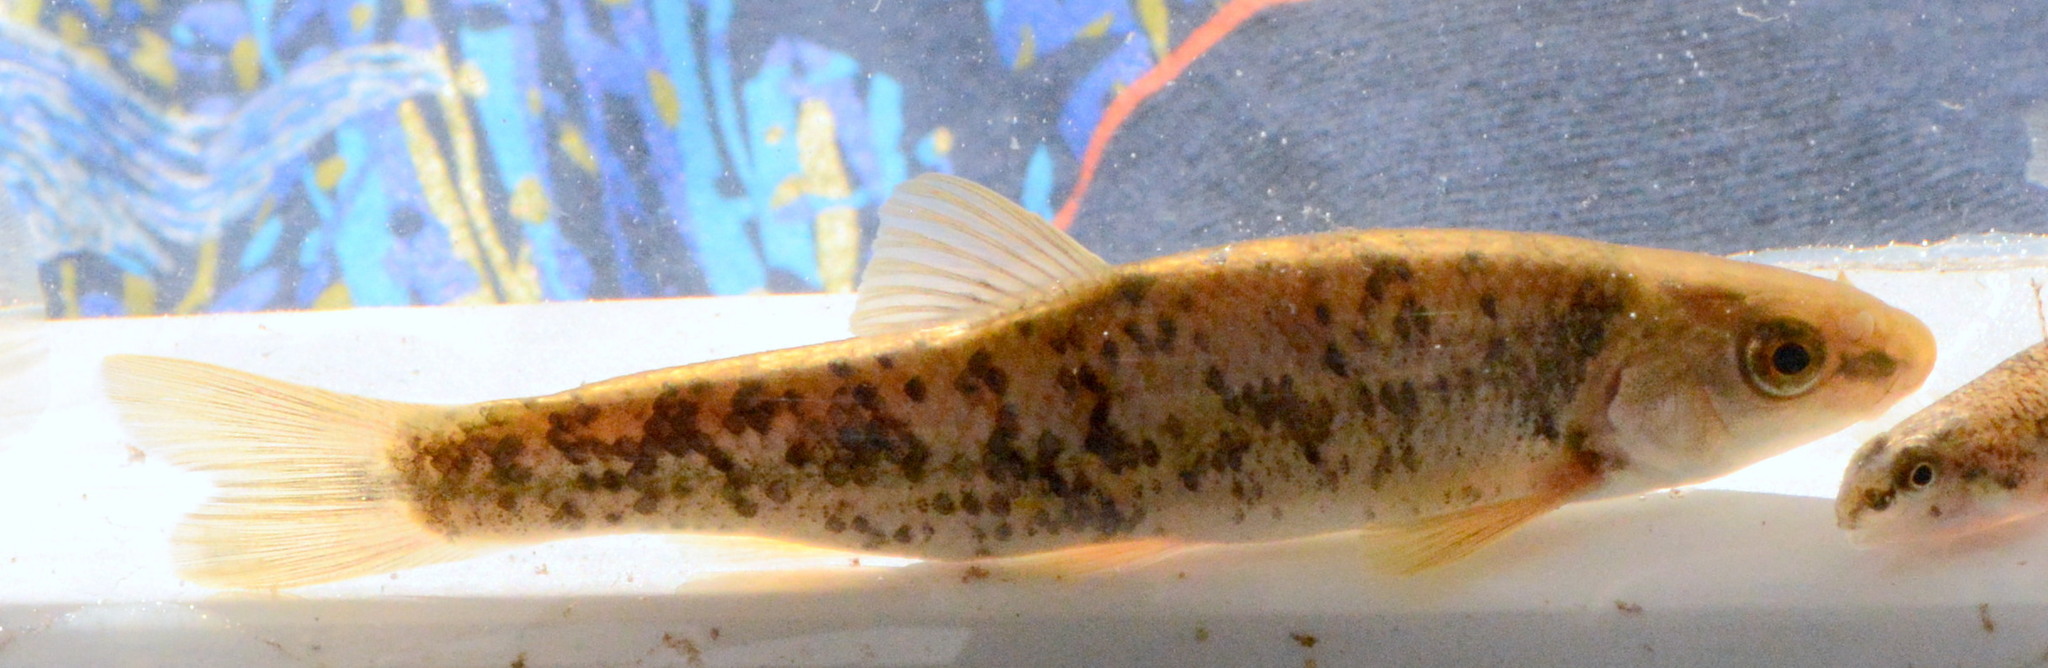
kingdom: Animalia
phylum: Chordata
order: Cypriniformes
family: Cyprinidae
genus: Campostoma
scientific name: Campostoma anomalum
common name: Central stoneroller
